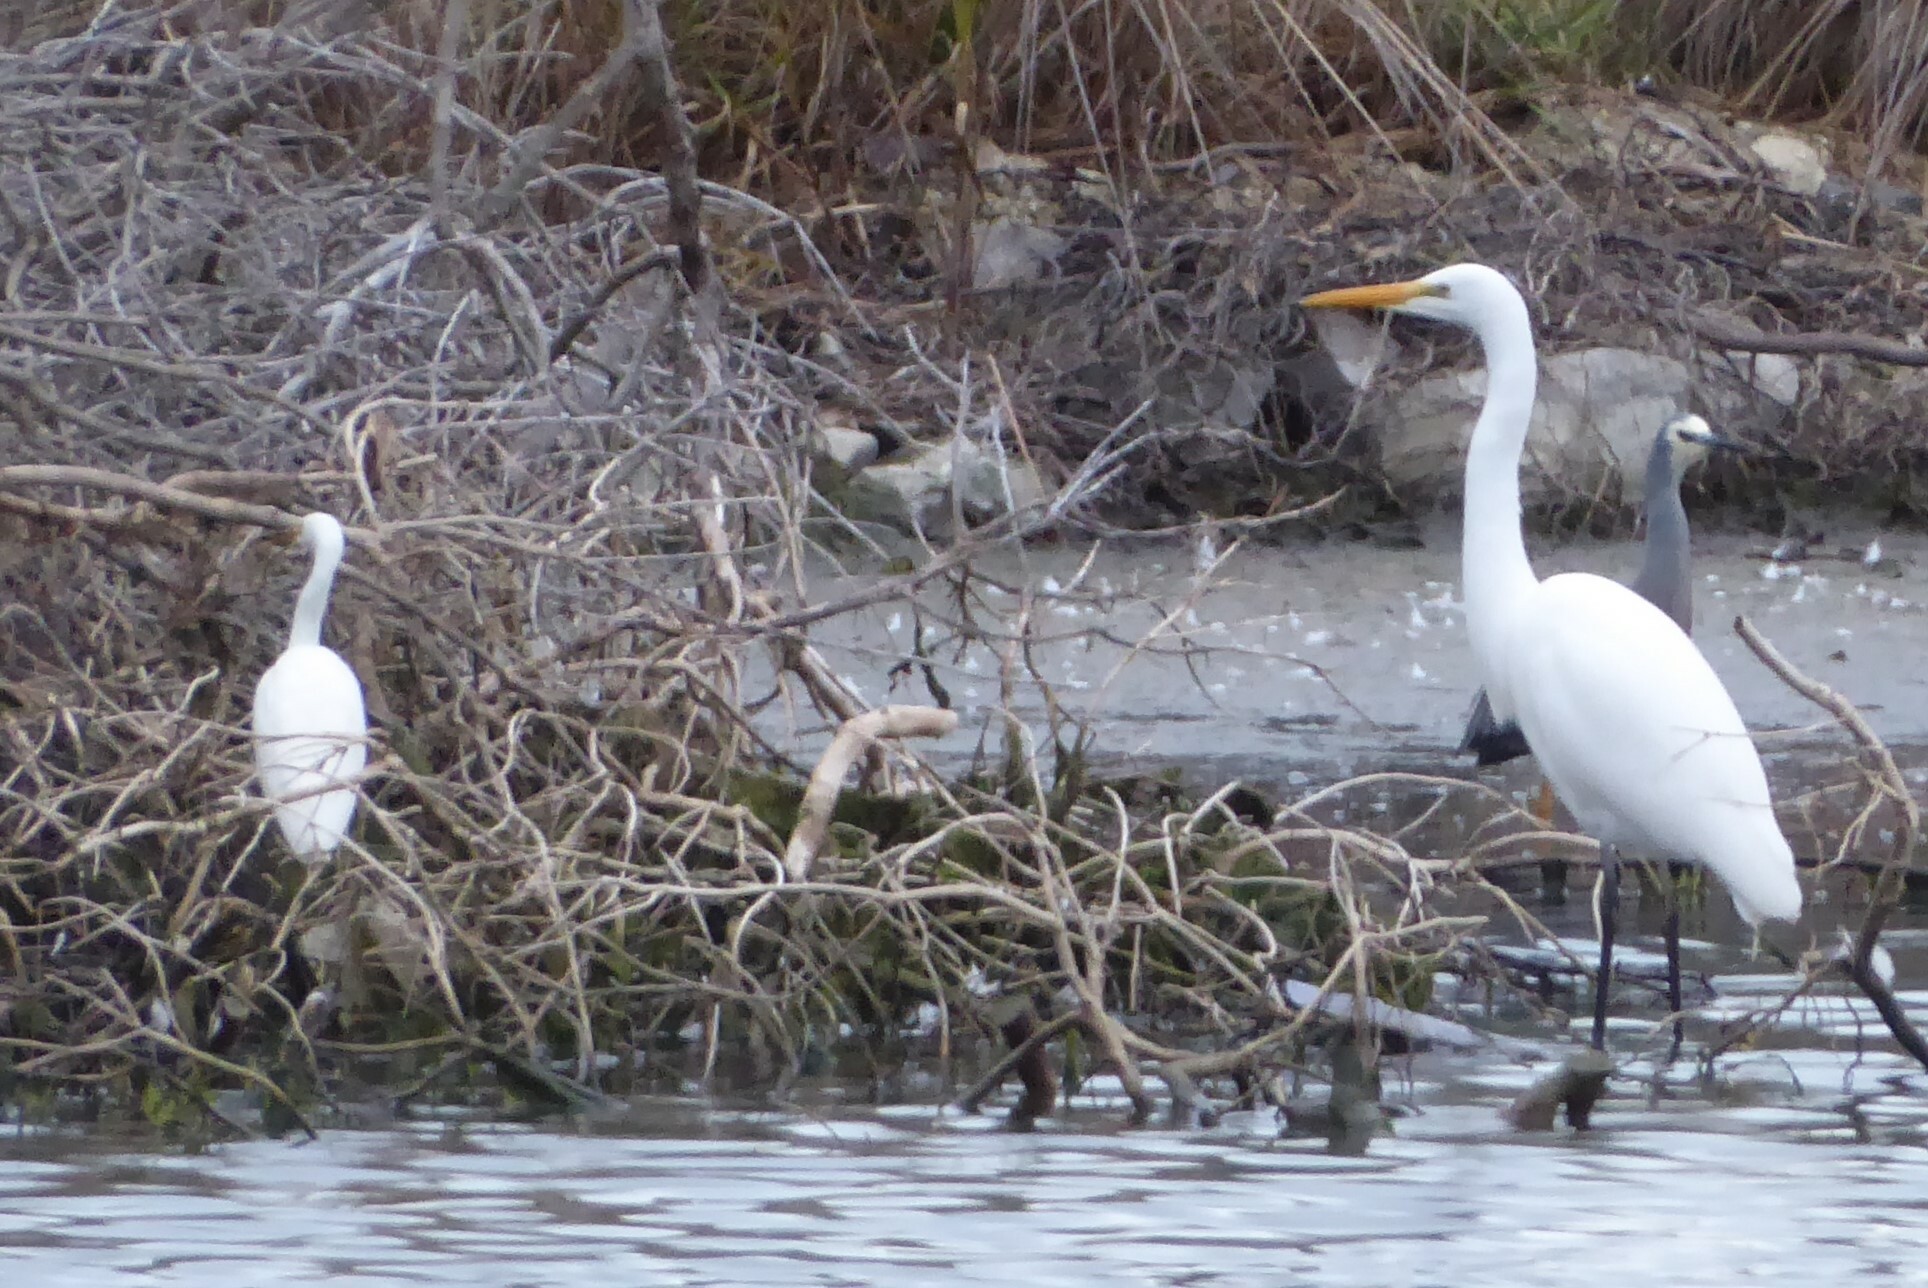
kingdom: Animalia
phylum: Chordata
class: Aves
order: Pelecaniformes
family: Ardeidae
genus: Ardea
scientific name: Ardea modesta
